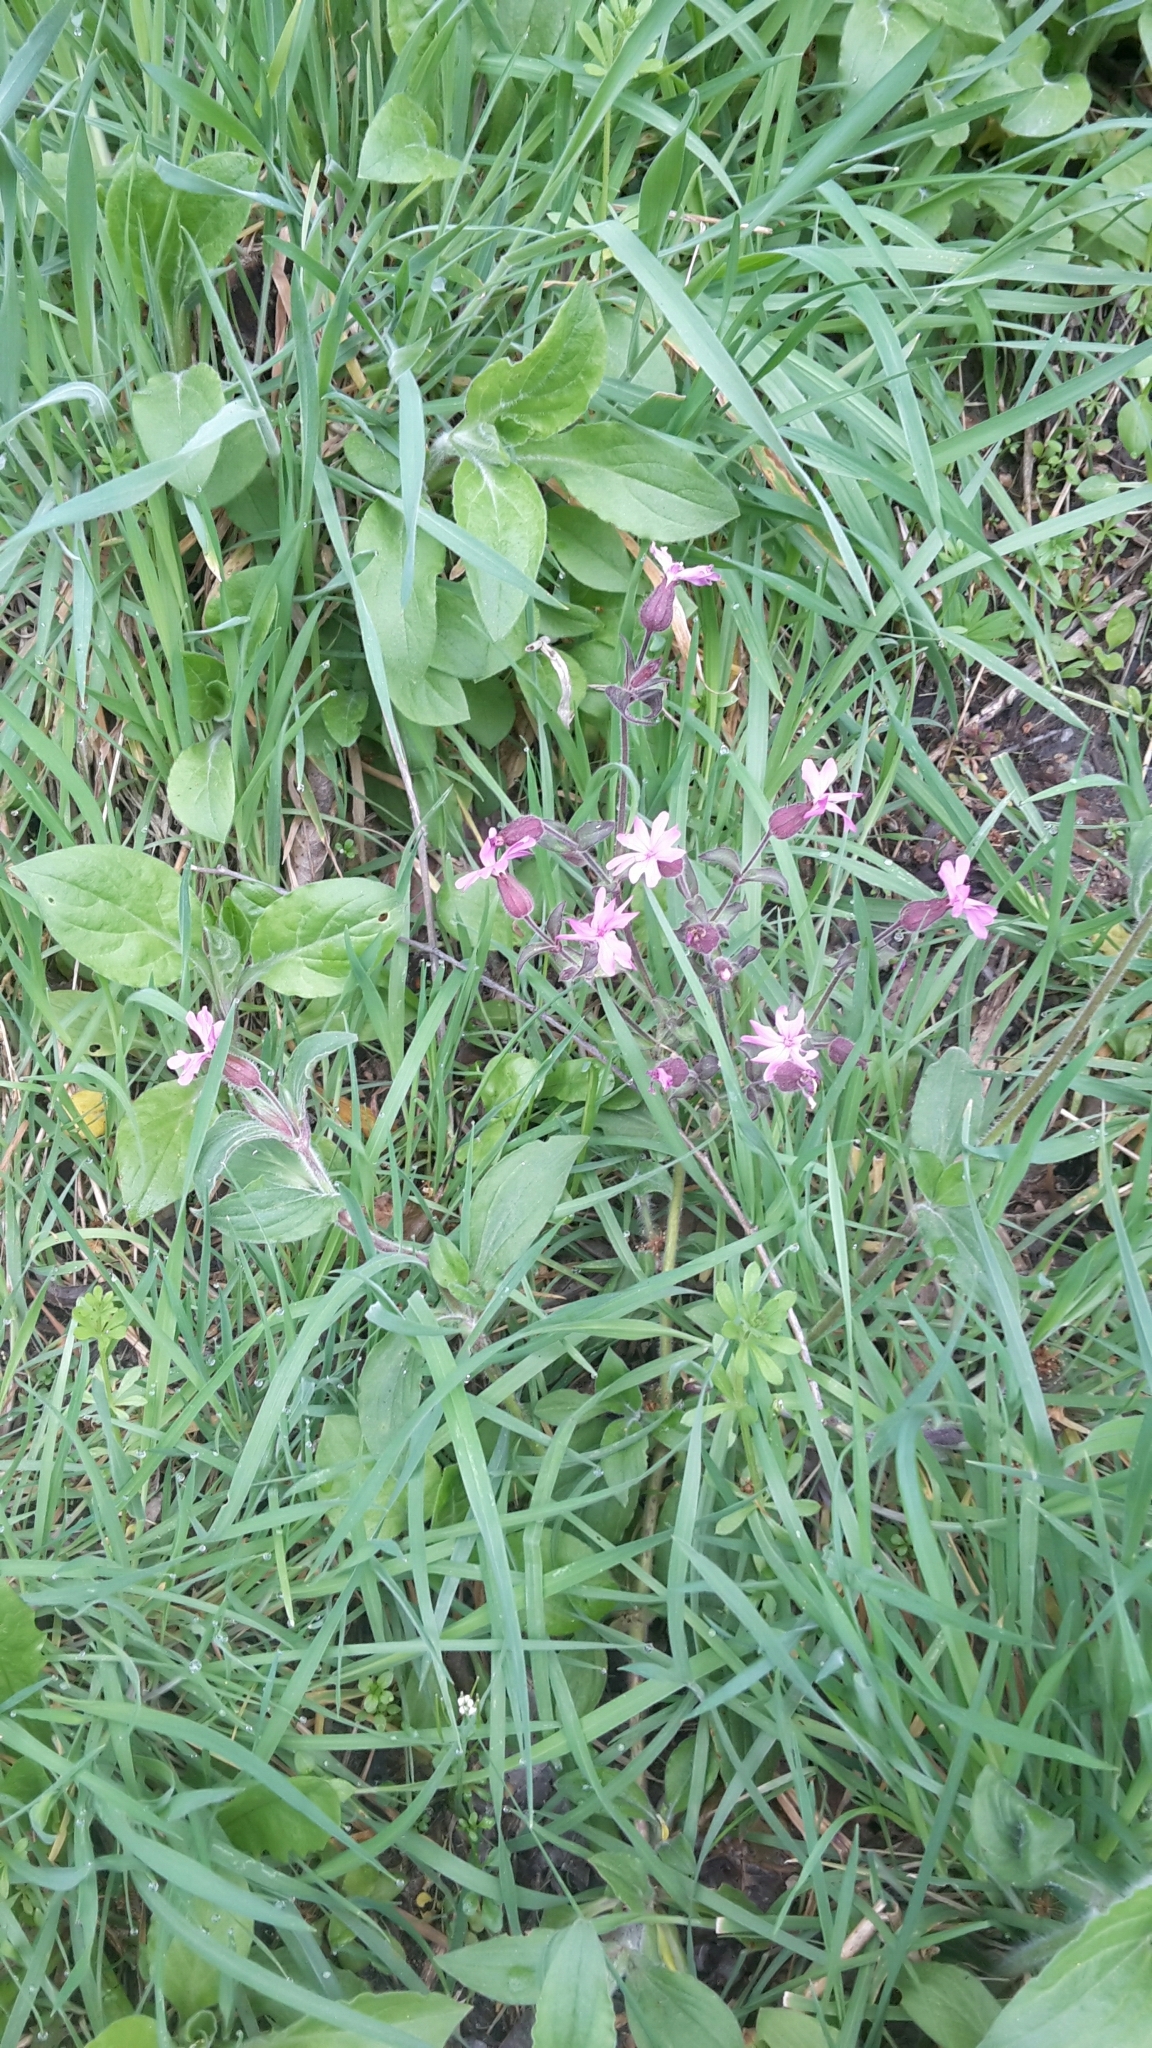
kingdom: Plantae
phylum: Tracheophyta
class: Magnoliopsida
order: Caryophyllales
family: Caryophyllaceae
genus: Silene
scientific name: Silene dioica
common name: Red campion
